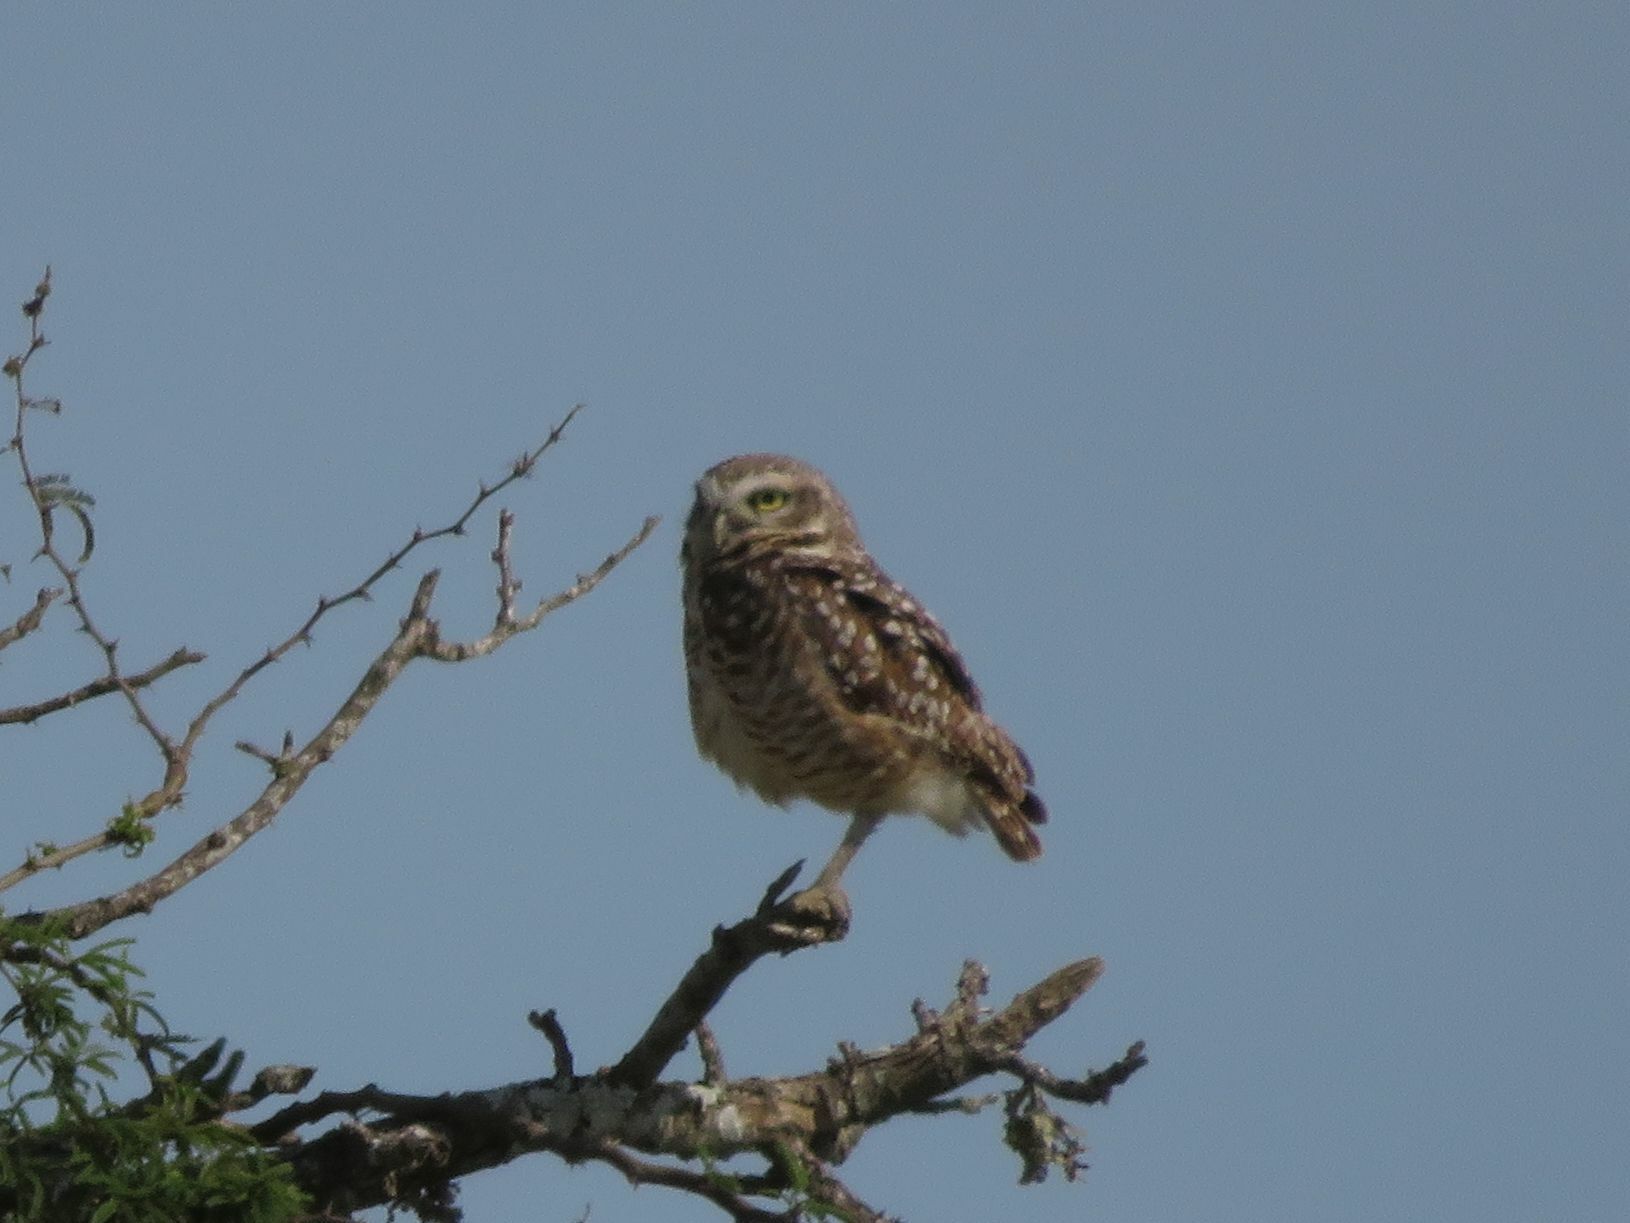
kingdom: Animalia
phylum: Chordata
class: Aves
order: Strigiformes
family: Strigidae
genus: Athene
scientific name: Athene cunicularia
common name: Burrowing owl
